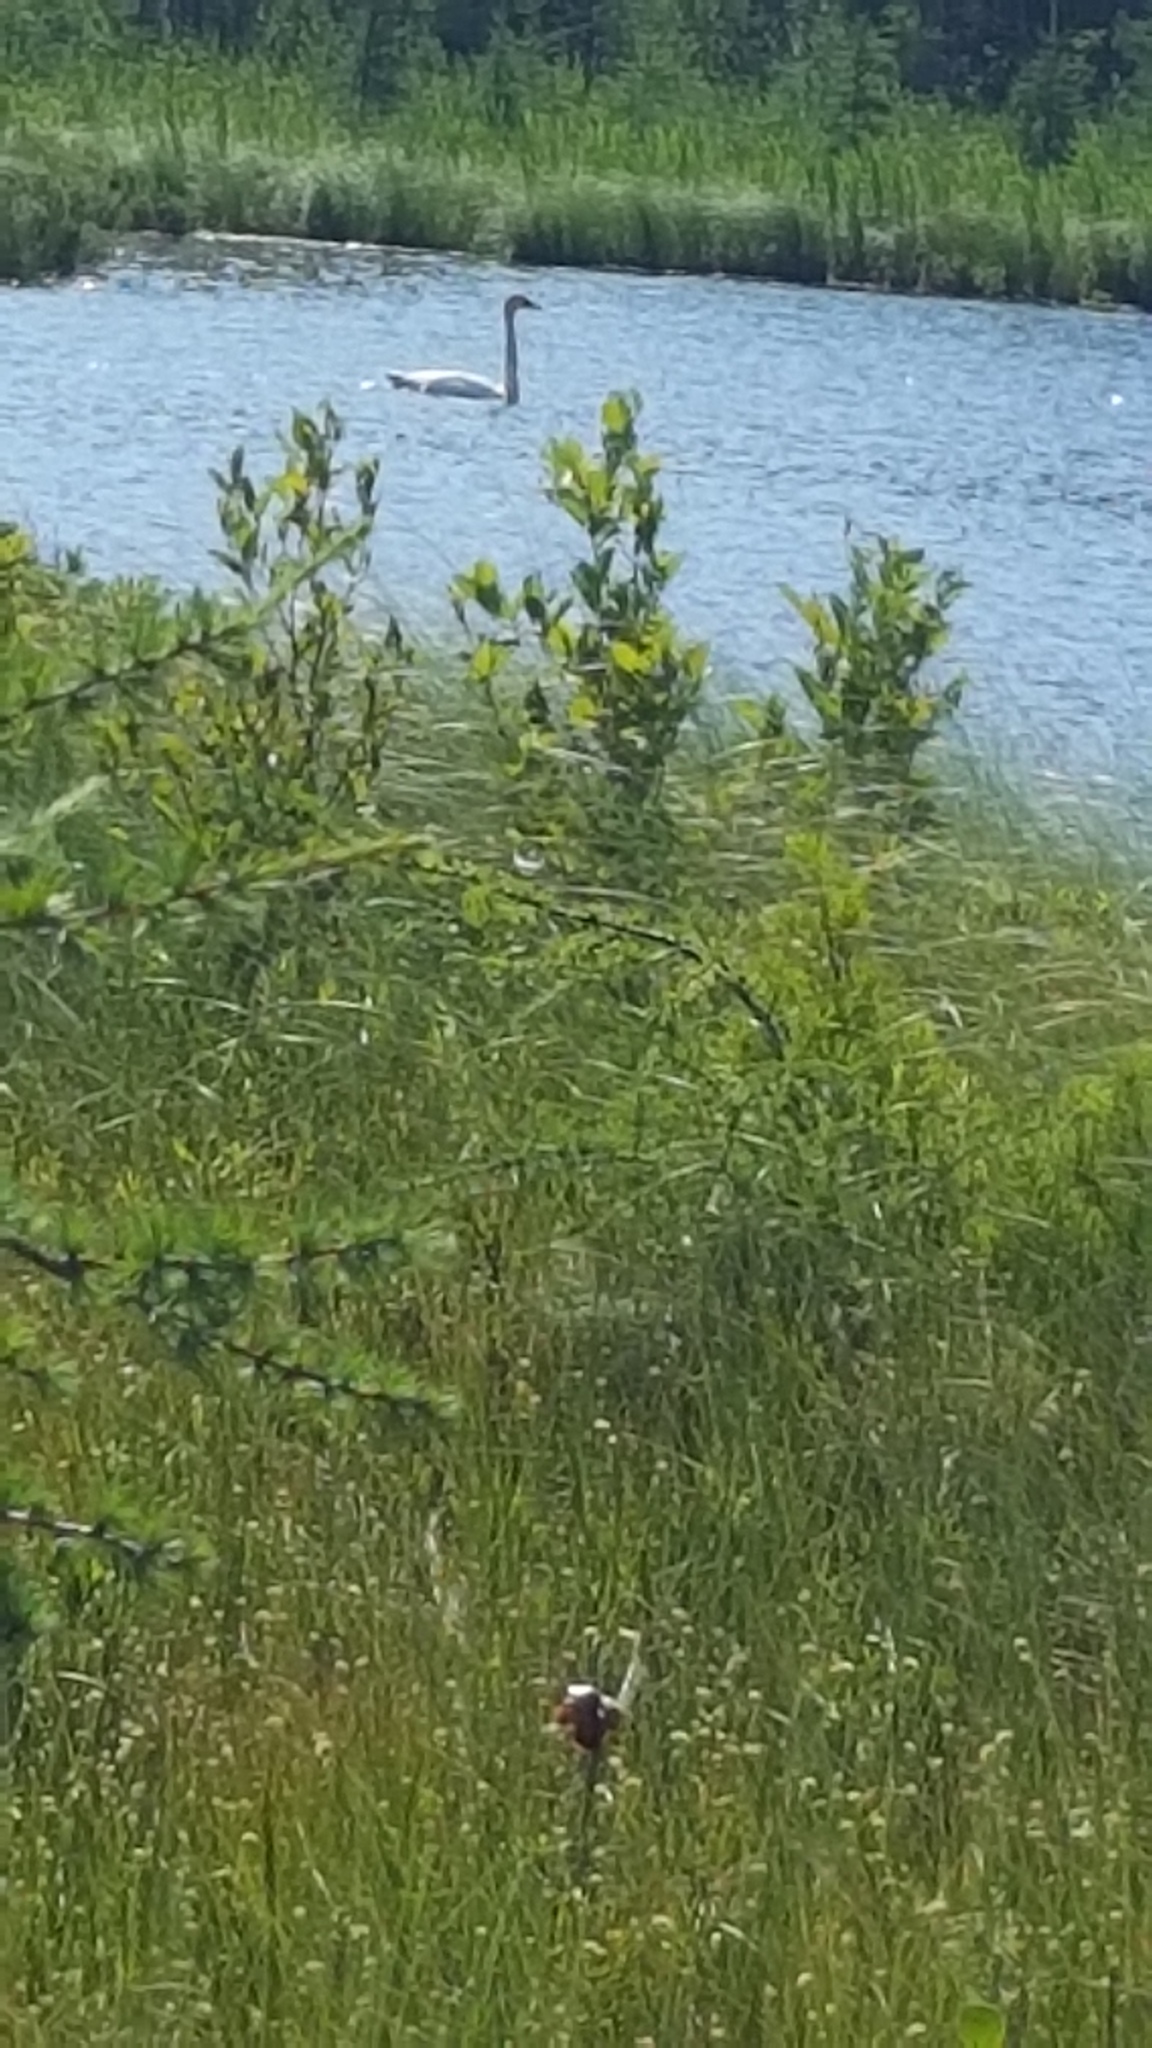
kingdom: Animalia
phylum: Chordata
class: Aves
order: Anseriformes
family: Anatidae
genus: Cygnus
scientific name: Cygnus buccinator
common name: Trumpeter swan
